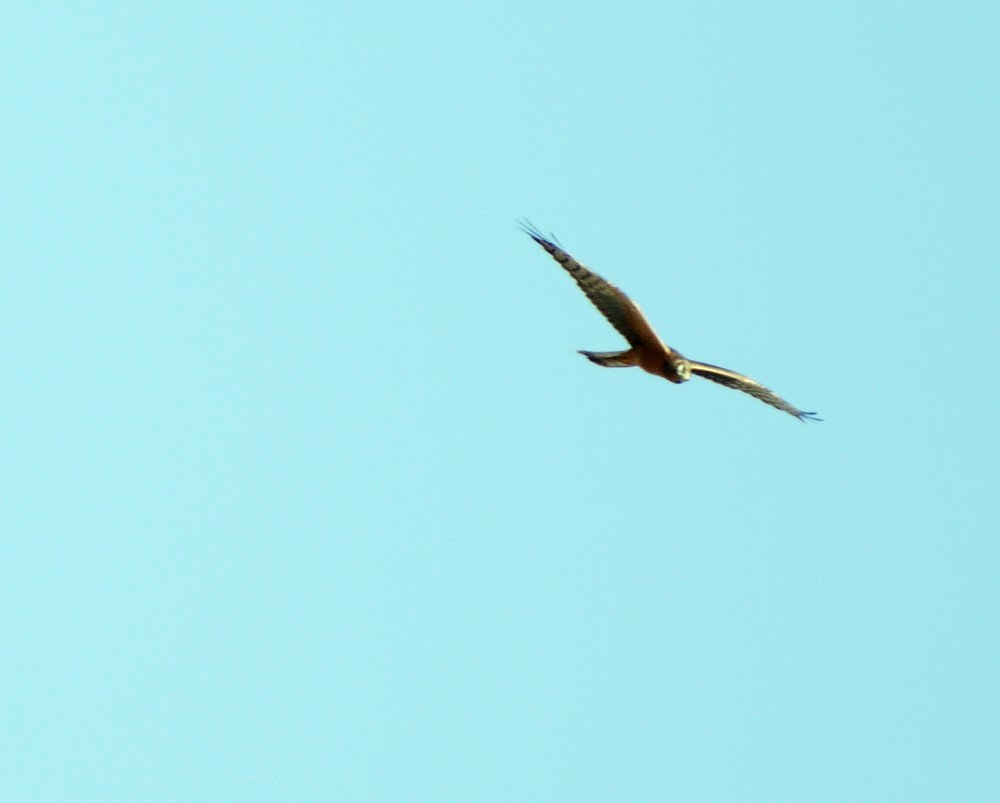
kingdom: Animalia
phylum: Chordata
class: Aves
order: Accipitriformes
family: Accipitridae
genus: Circus
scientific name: Circus macrourus
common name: Pallid harrier
